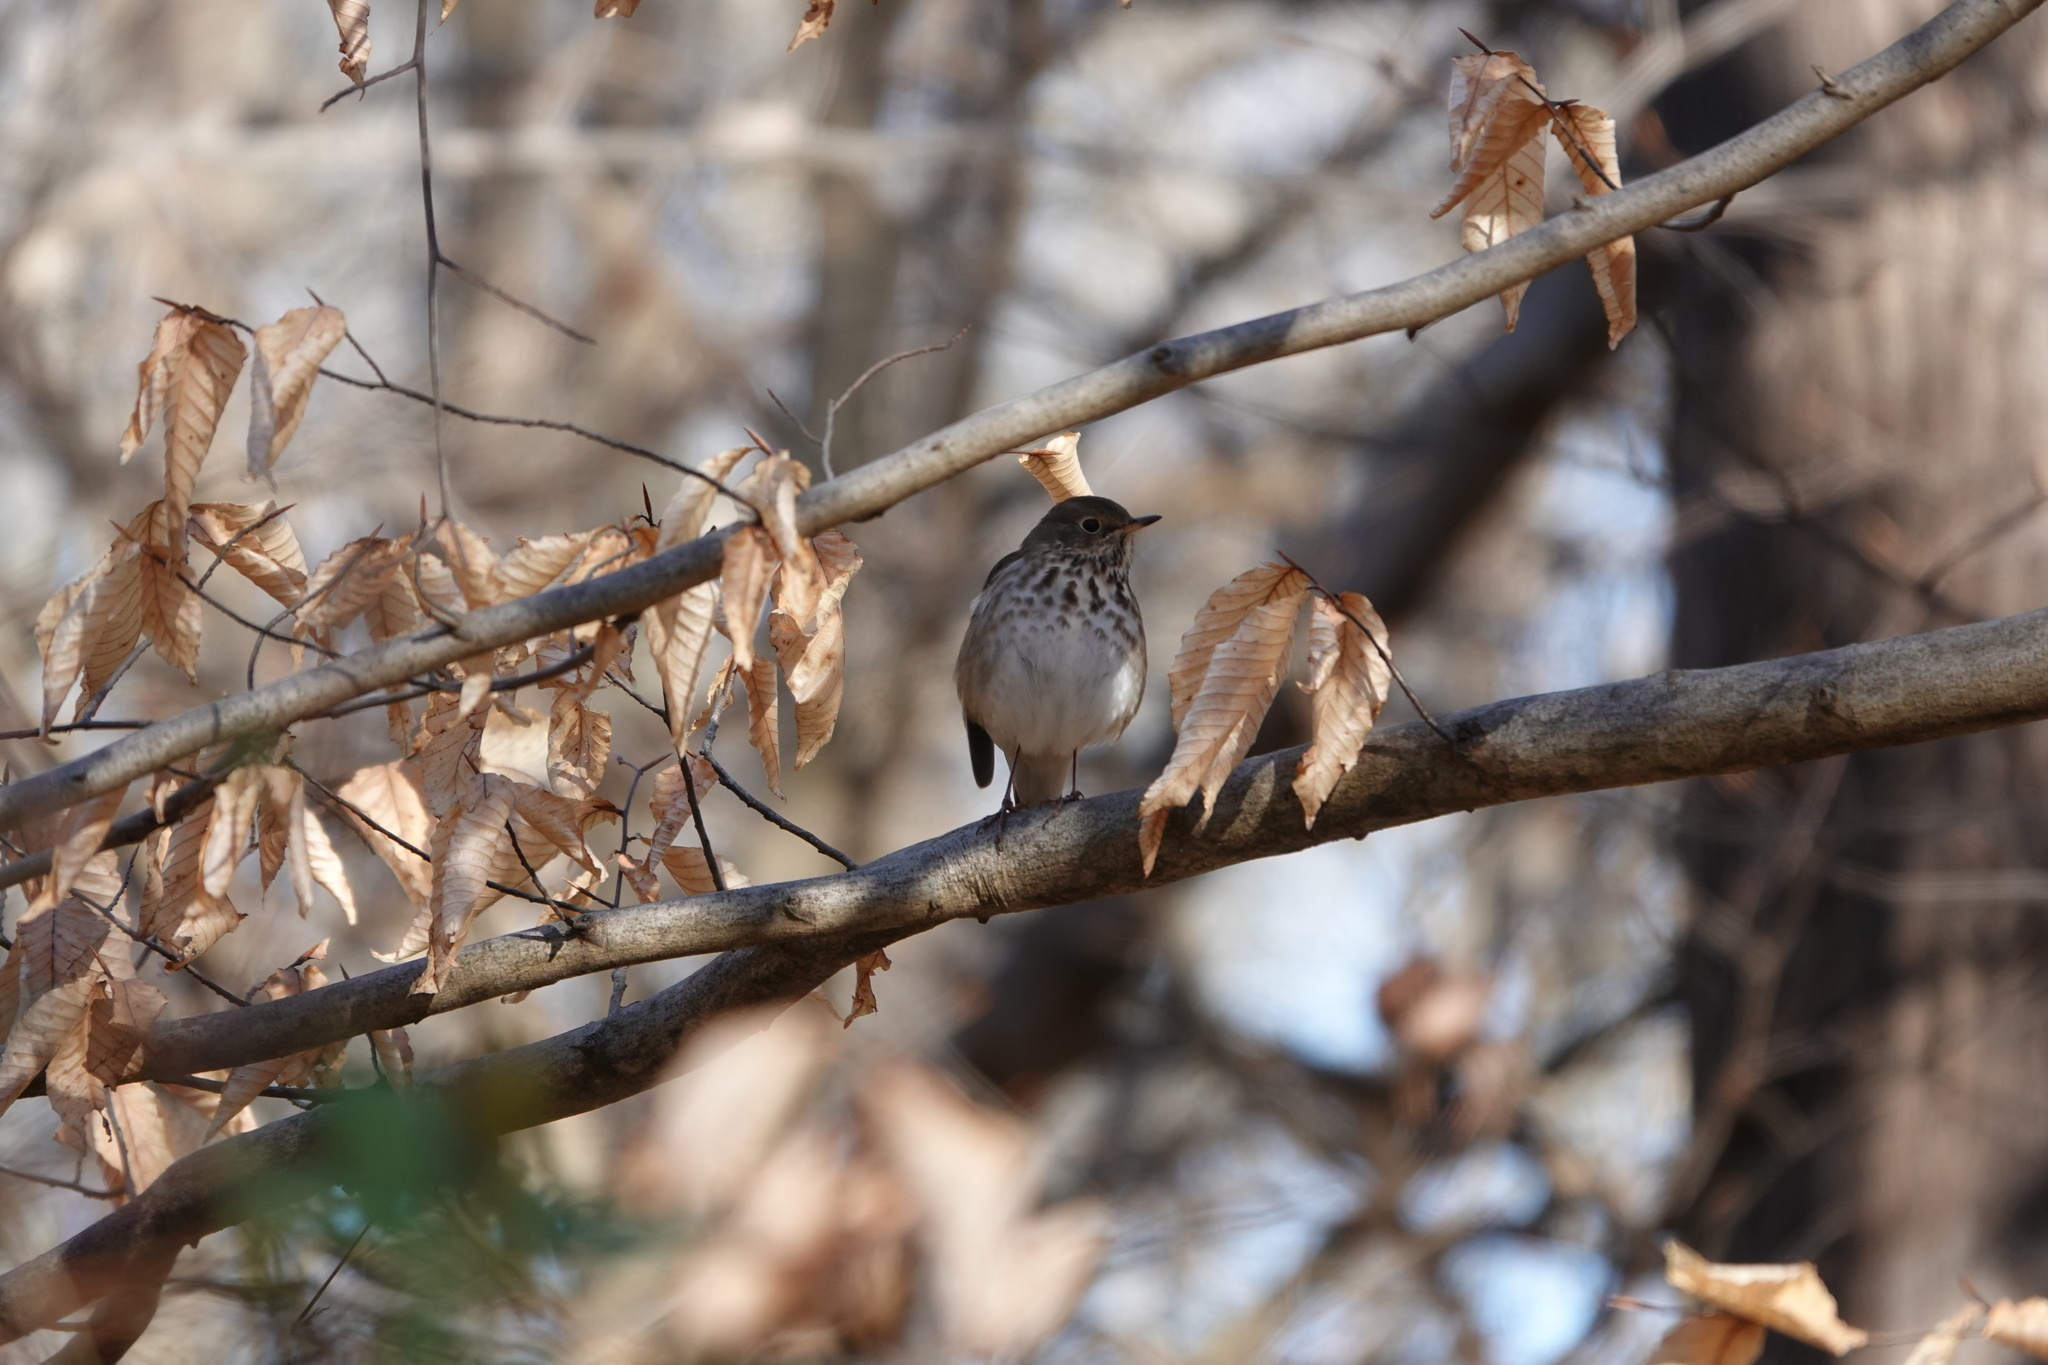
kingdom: Animalia
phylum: Chordata
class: Aves
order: Passeriformes
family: Turdidae
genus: Catharus
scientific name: Catharus guttatus
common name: Hermit thrush
